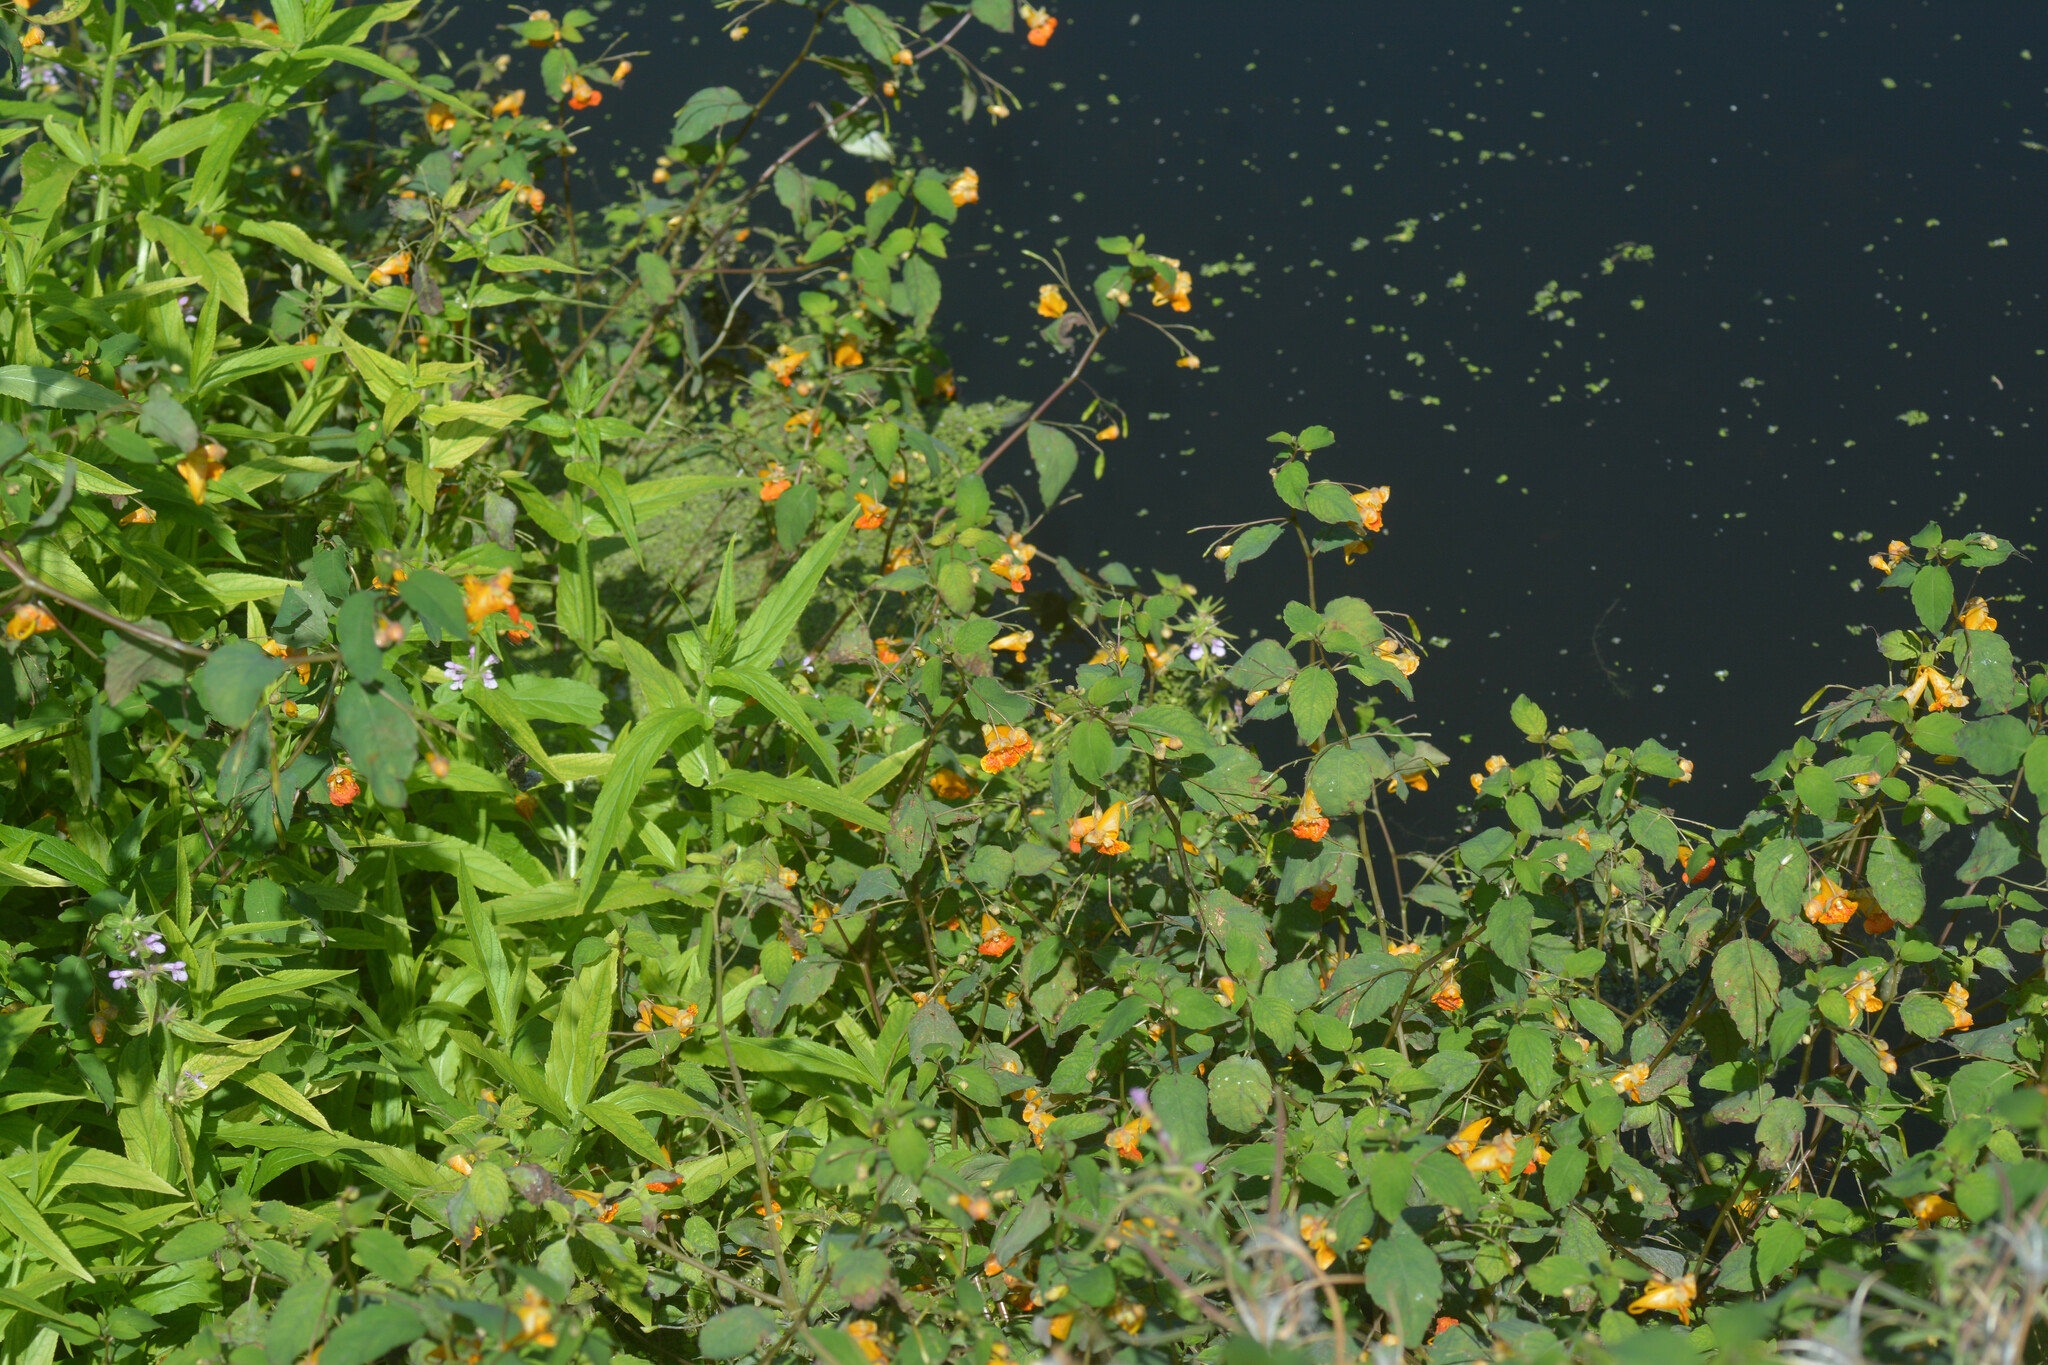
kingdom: Plantae
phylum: Tracheophyta
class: Magnoliopsida
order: Ericales
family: Balsaminaceae
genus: Impatiens
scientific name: Impatiens capensis
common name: Orange balsam
